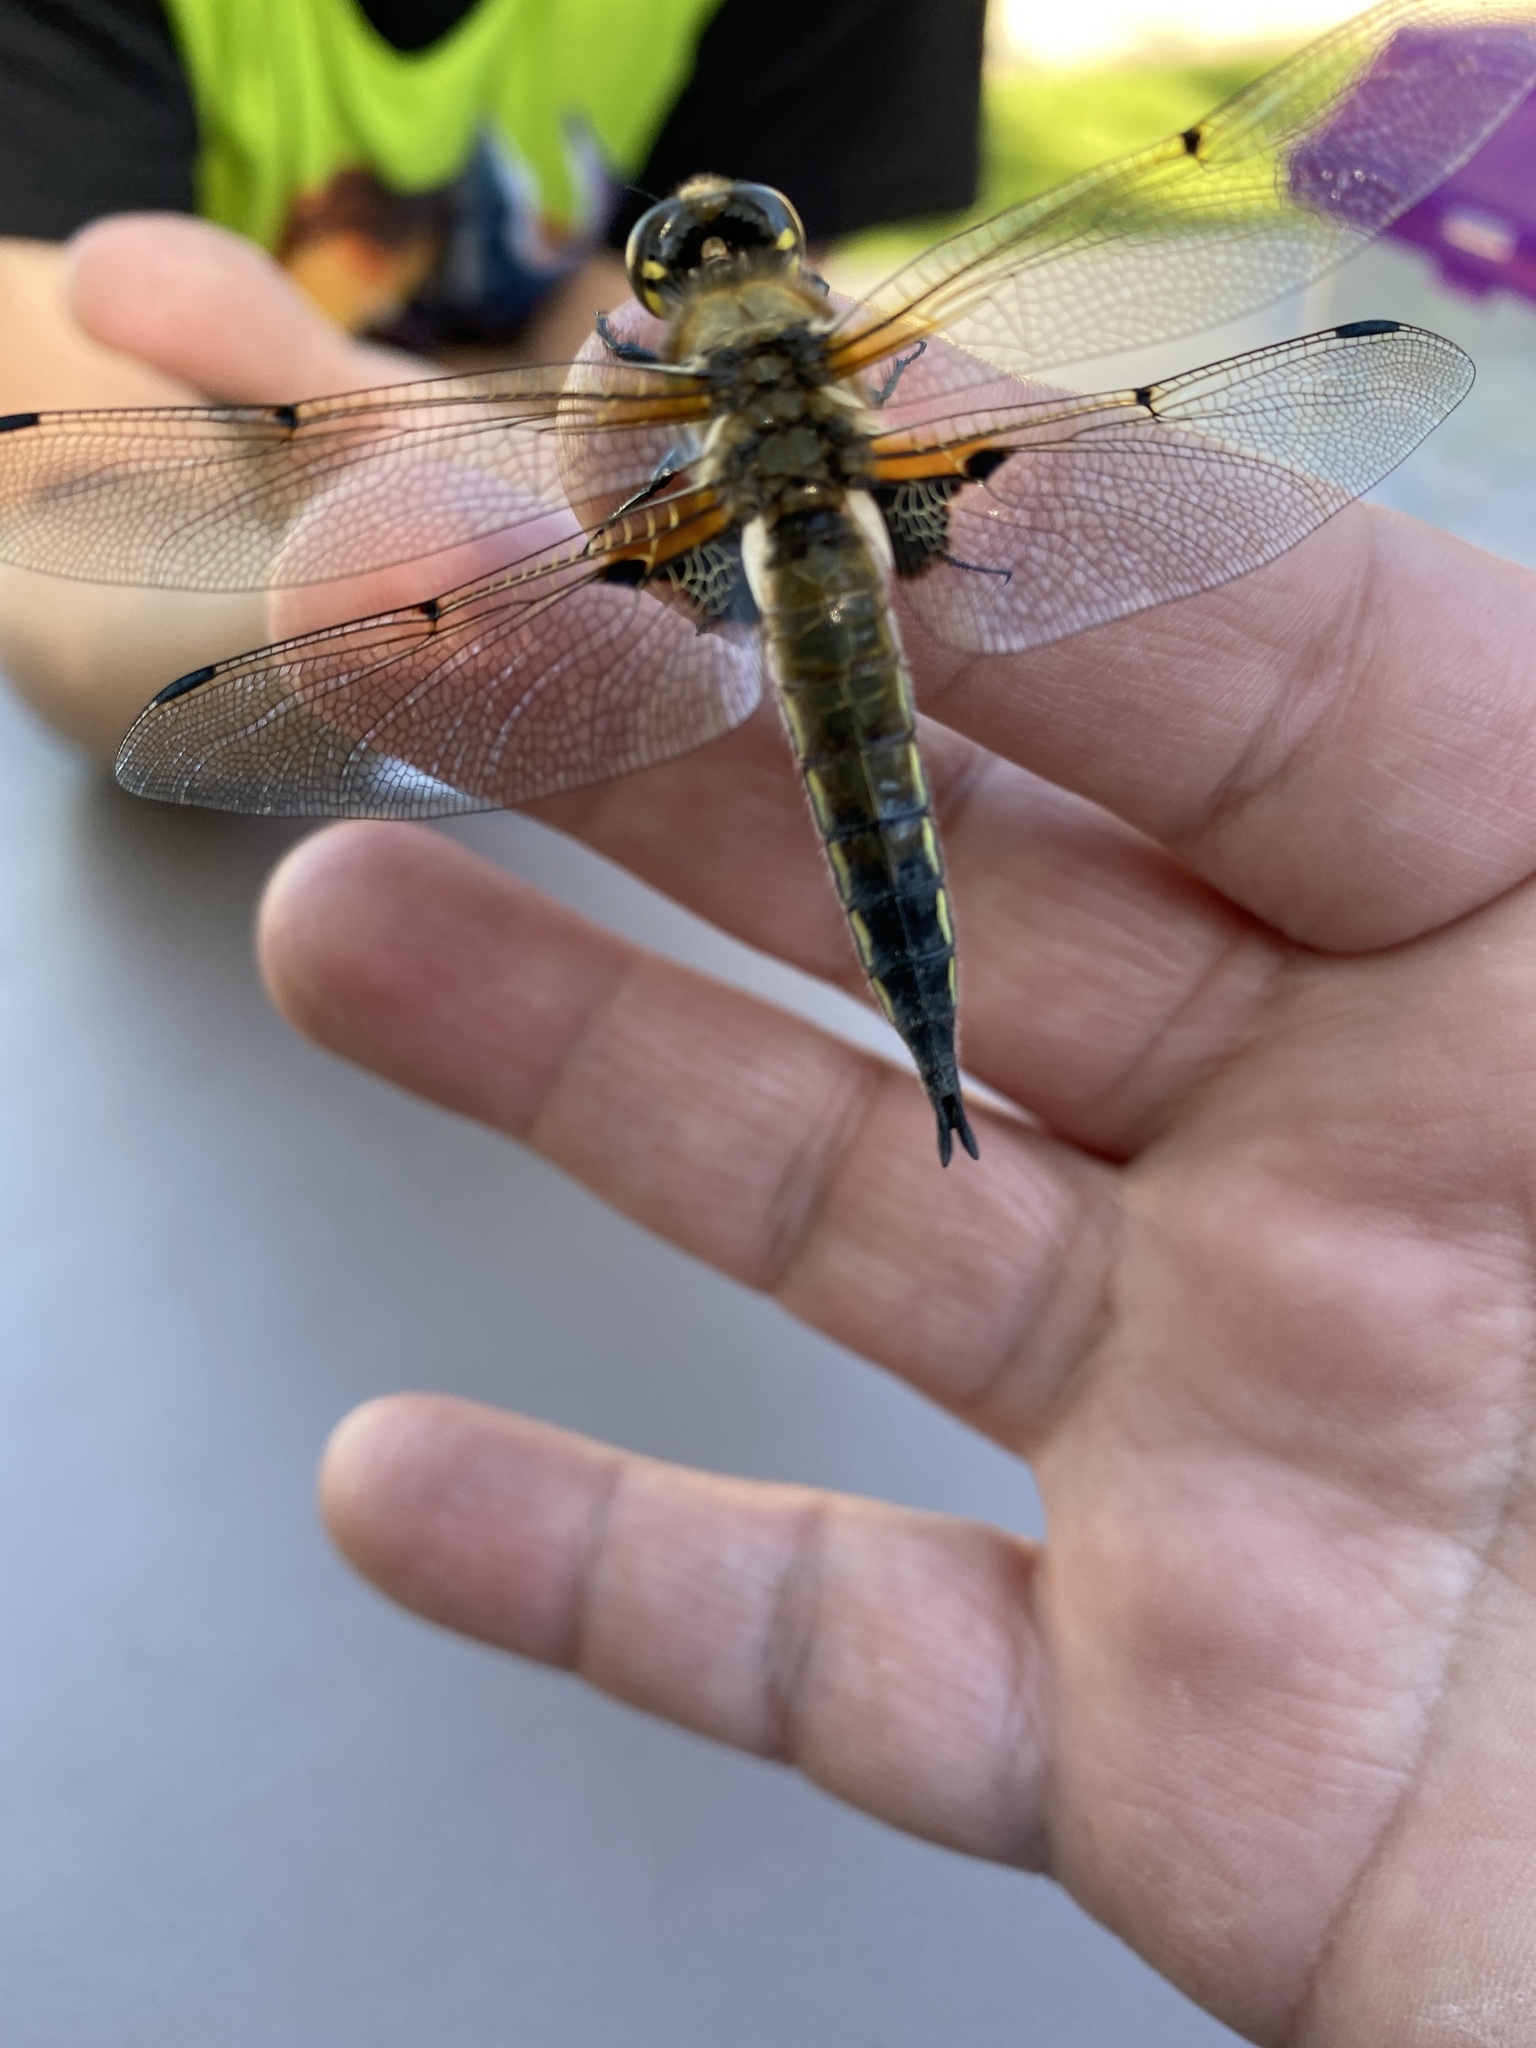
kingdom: Animalia
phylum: Arthropoda
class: Insecta
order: Odonata
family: Libellulidae
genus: Libellula
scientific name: Libellula quadrimaculata
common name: Four-spotted chaser
